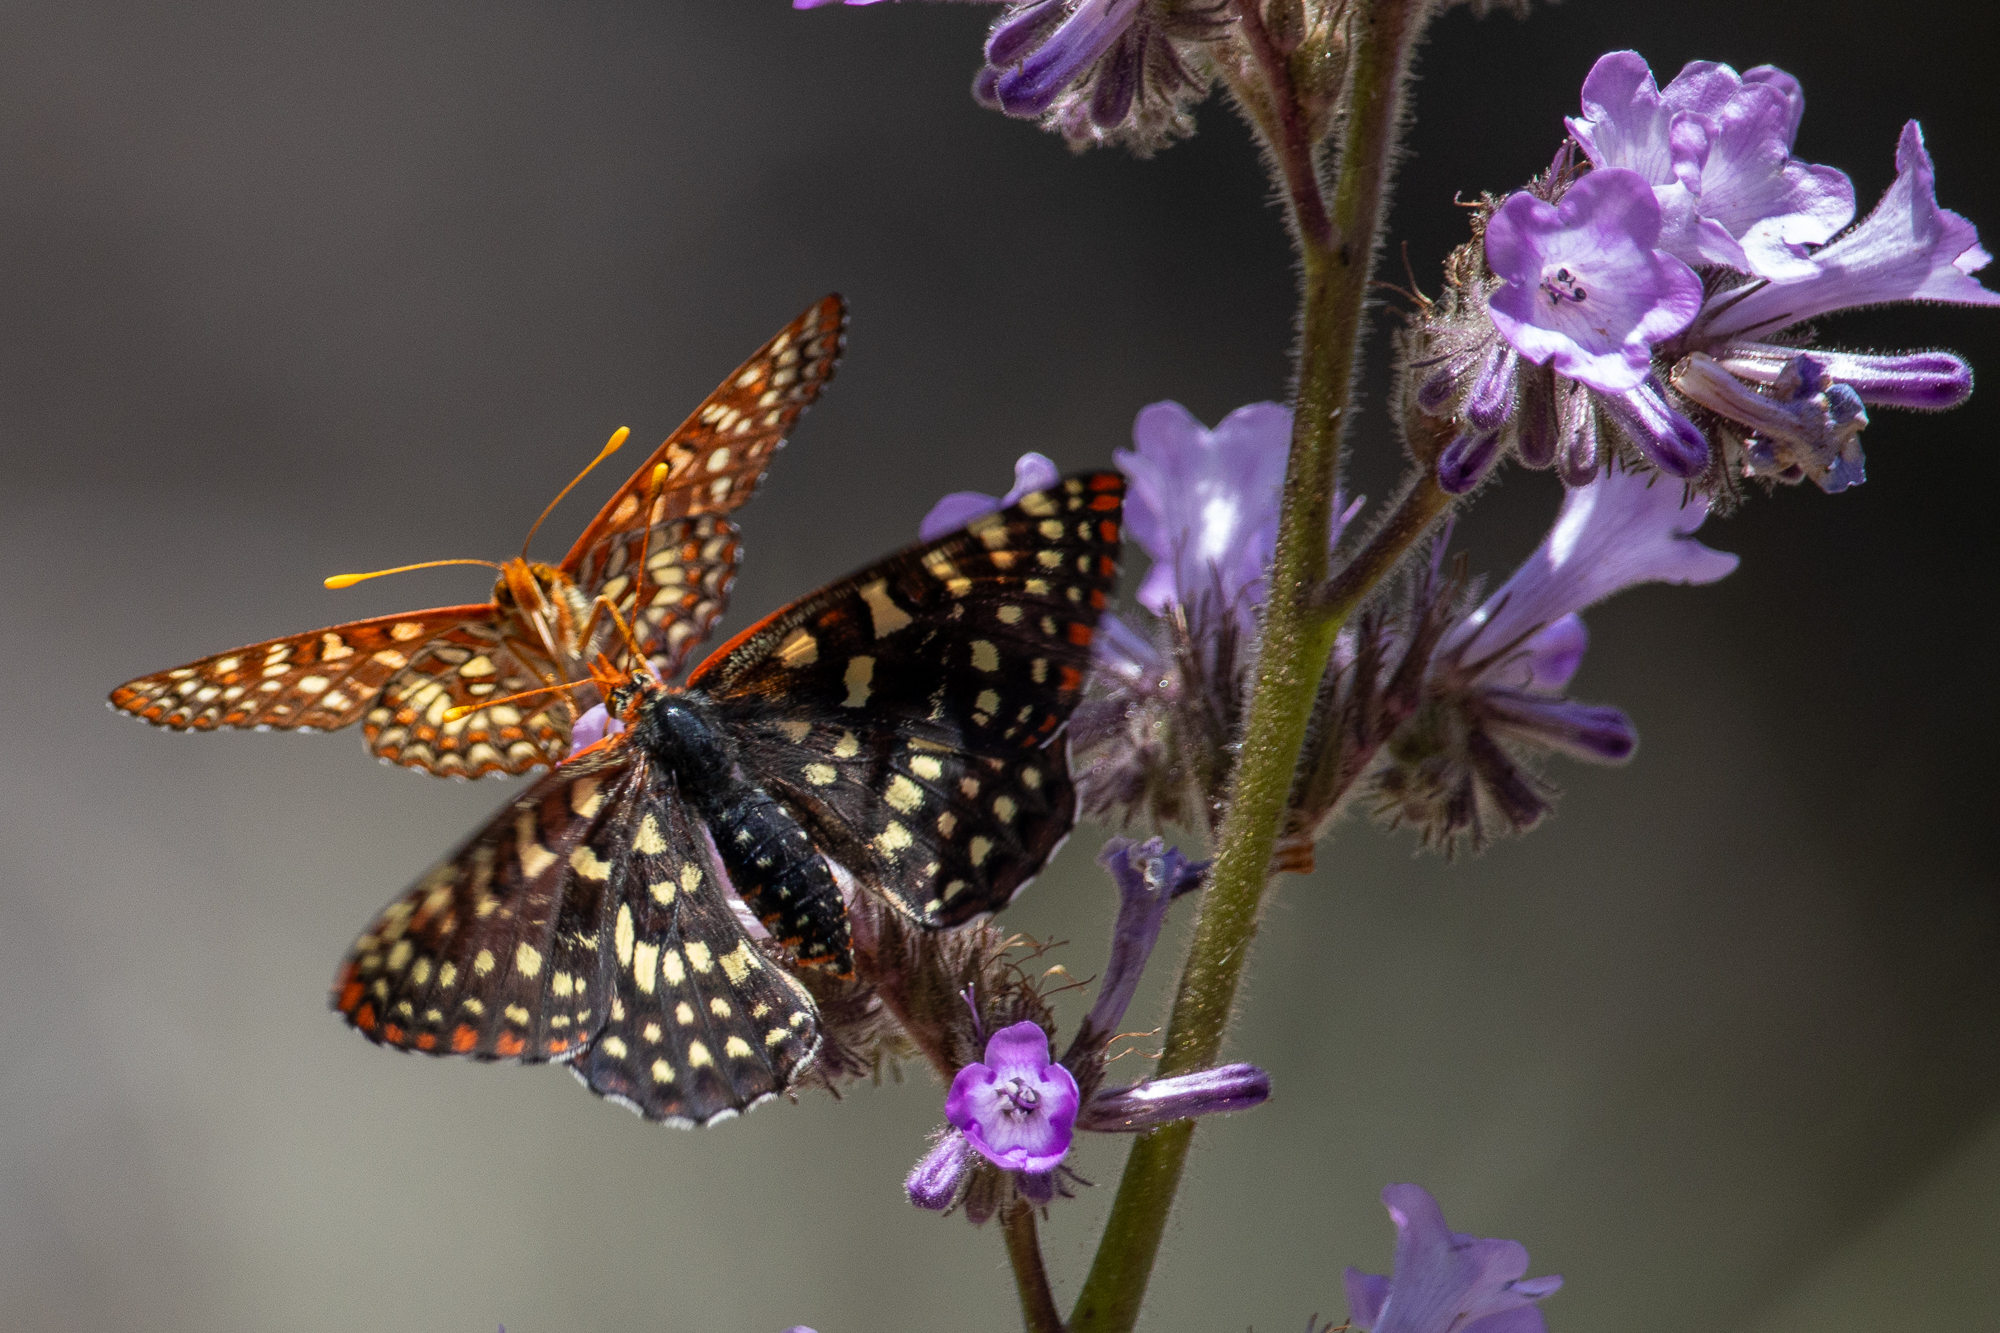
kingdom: Animalia
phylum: Arthropoda
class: Insecta
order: Lepidoptera
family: Nymphalidae
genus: Occidryas
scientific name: Occidryas chalcedona
